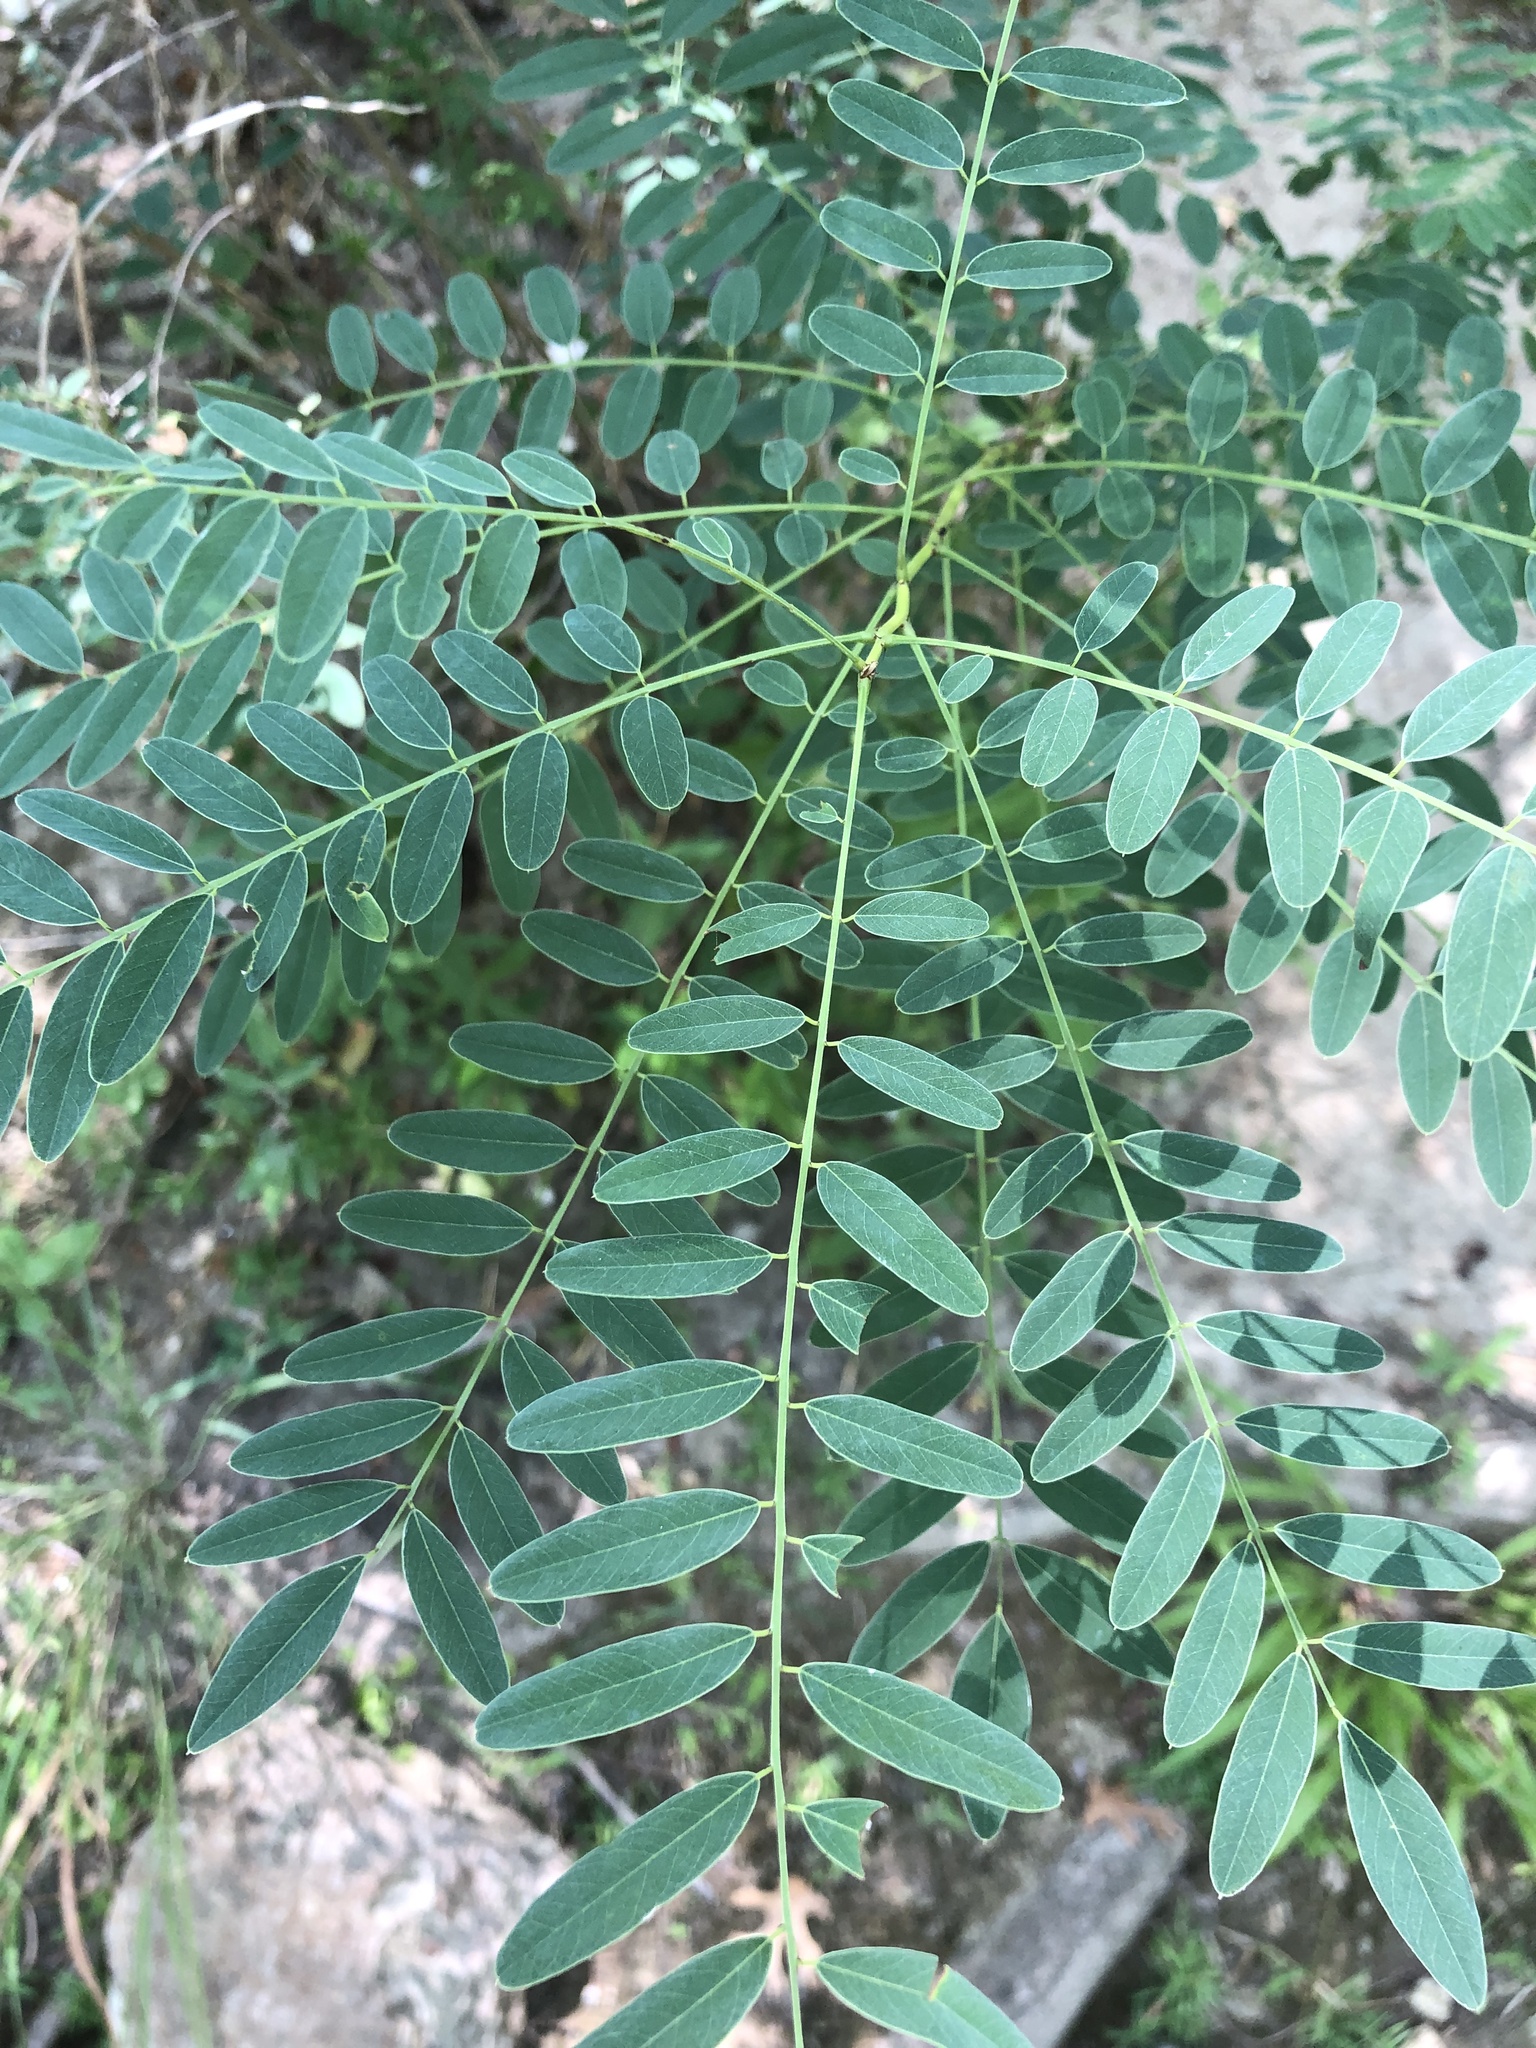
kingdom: Plantae
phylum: Tracheophyta
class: Magnoliopsida
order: Fabales
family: Fabaceae
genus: Amorpha
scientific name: Amorpha fruticosa
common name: False indigo
